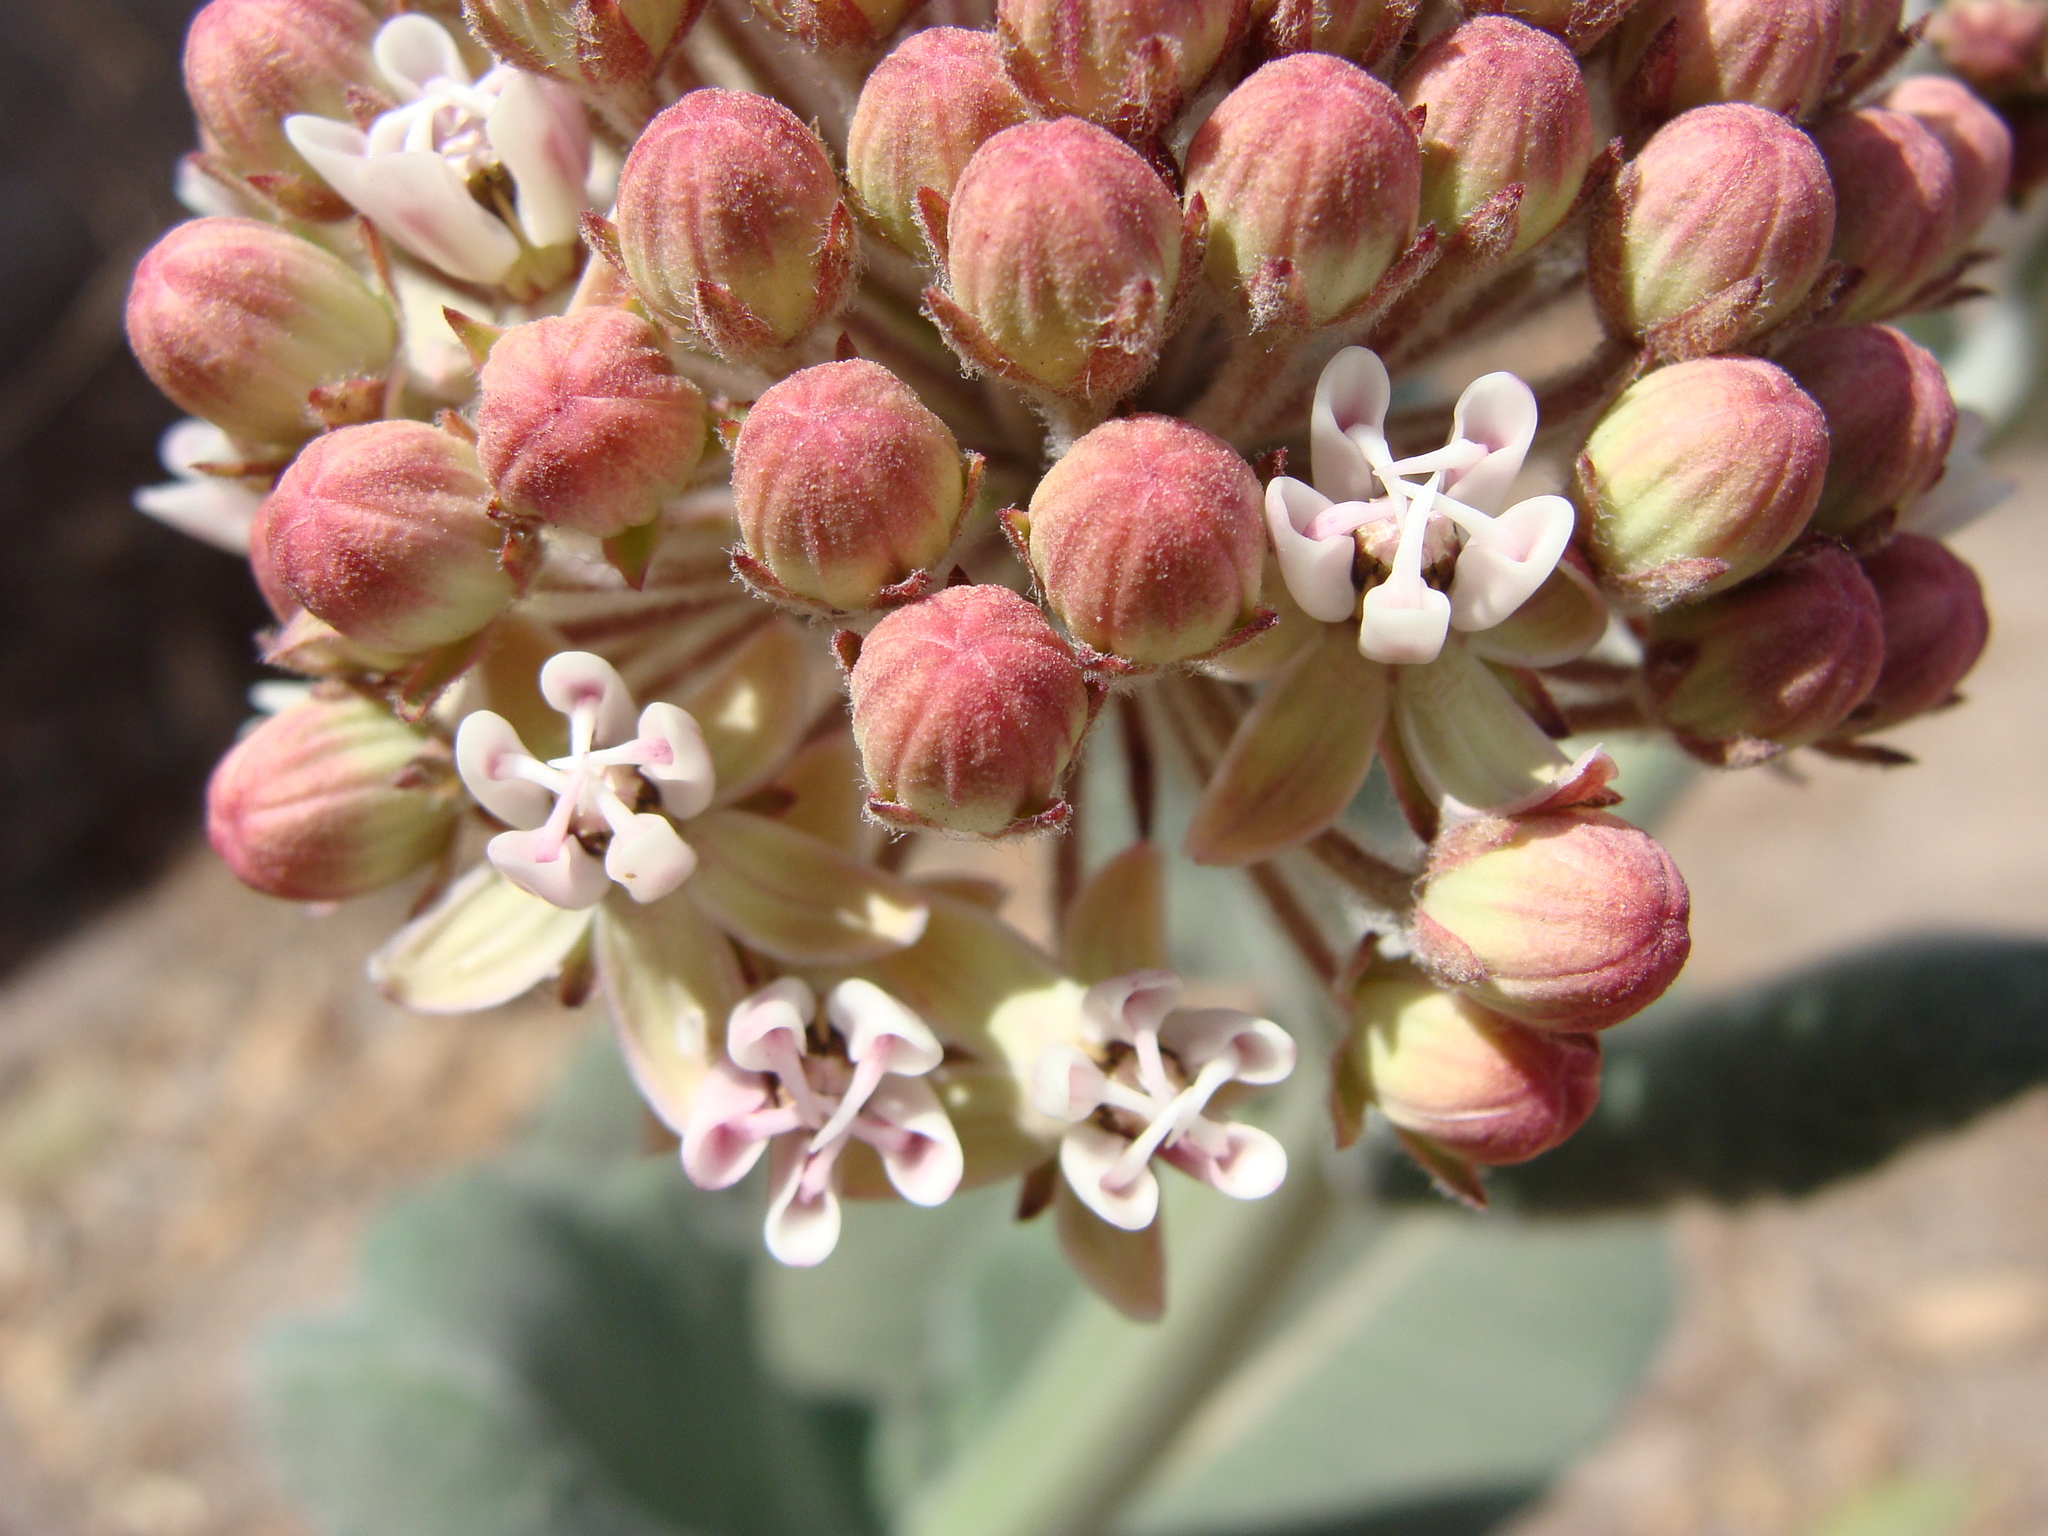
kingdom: Plantae
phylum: Tracheophyta
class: Magnoliopsida
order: Gentianales
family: Apocynaceae
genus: Asclepias
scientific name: Asclepias otarioides
